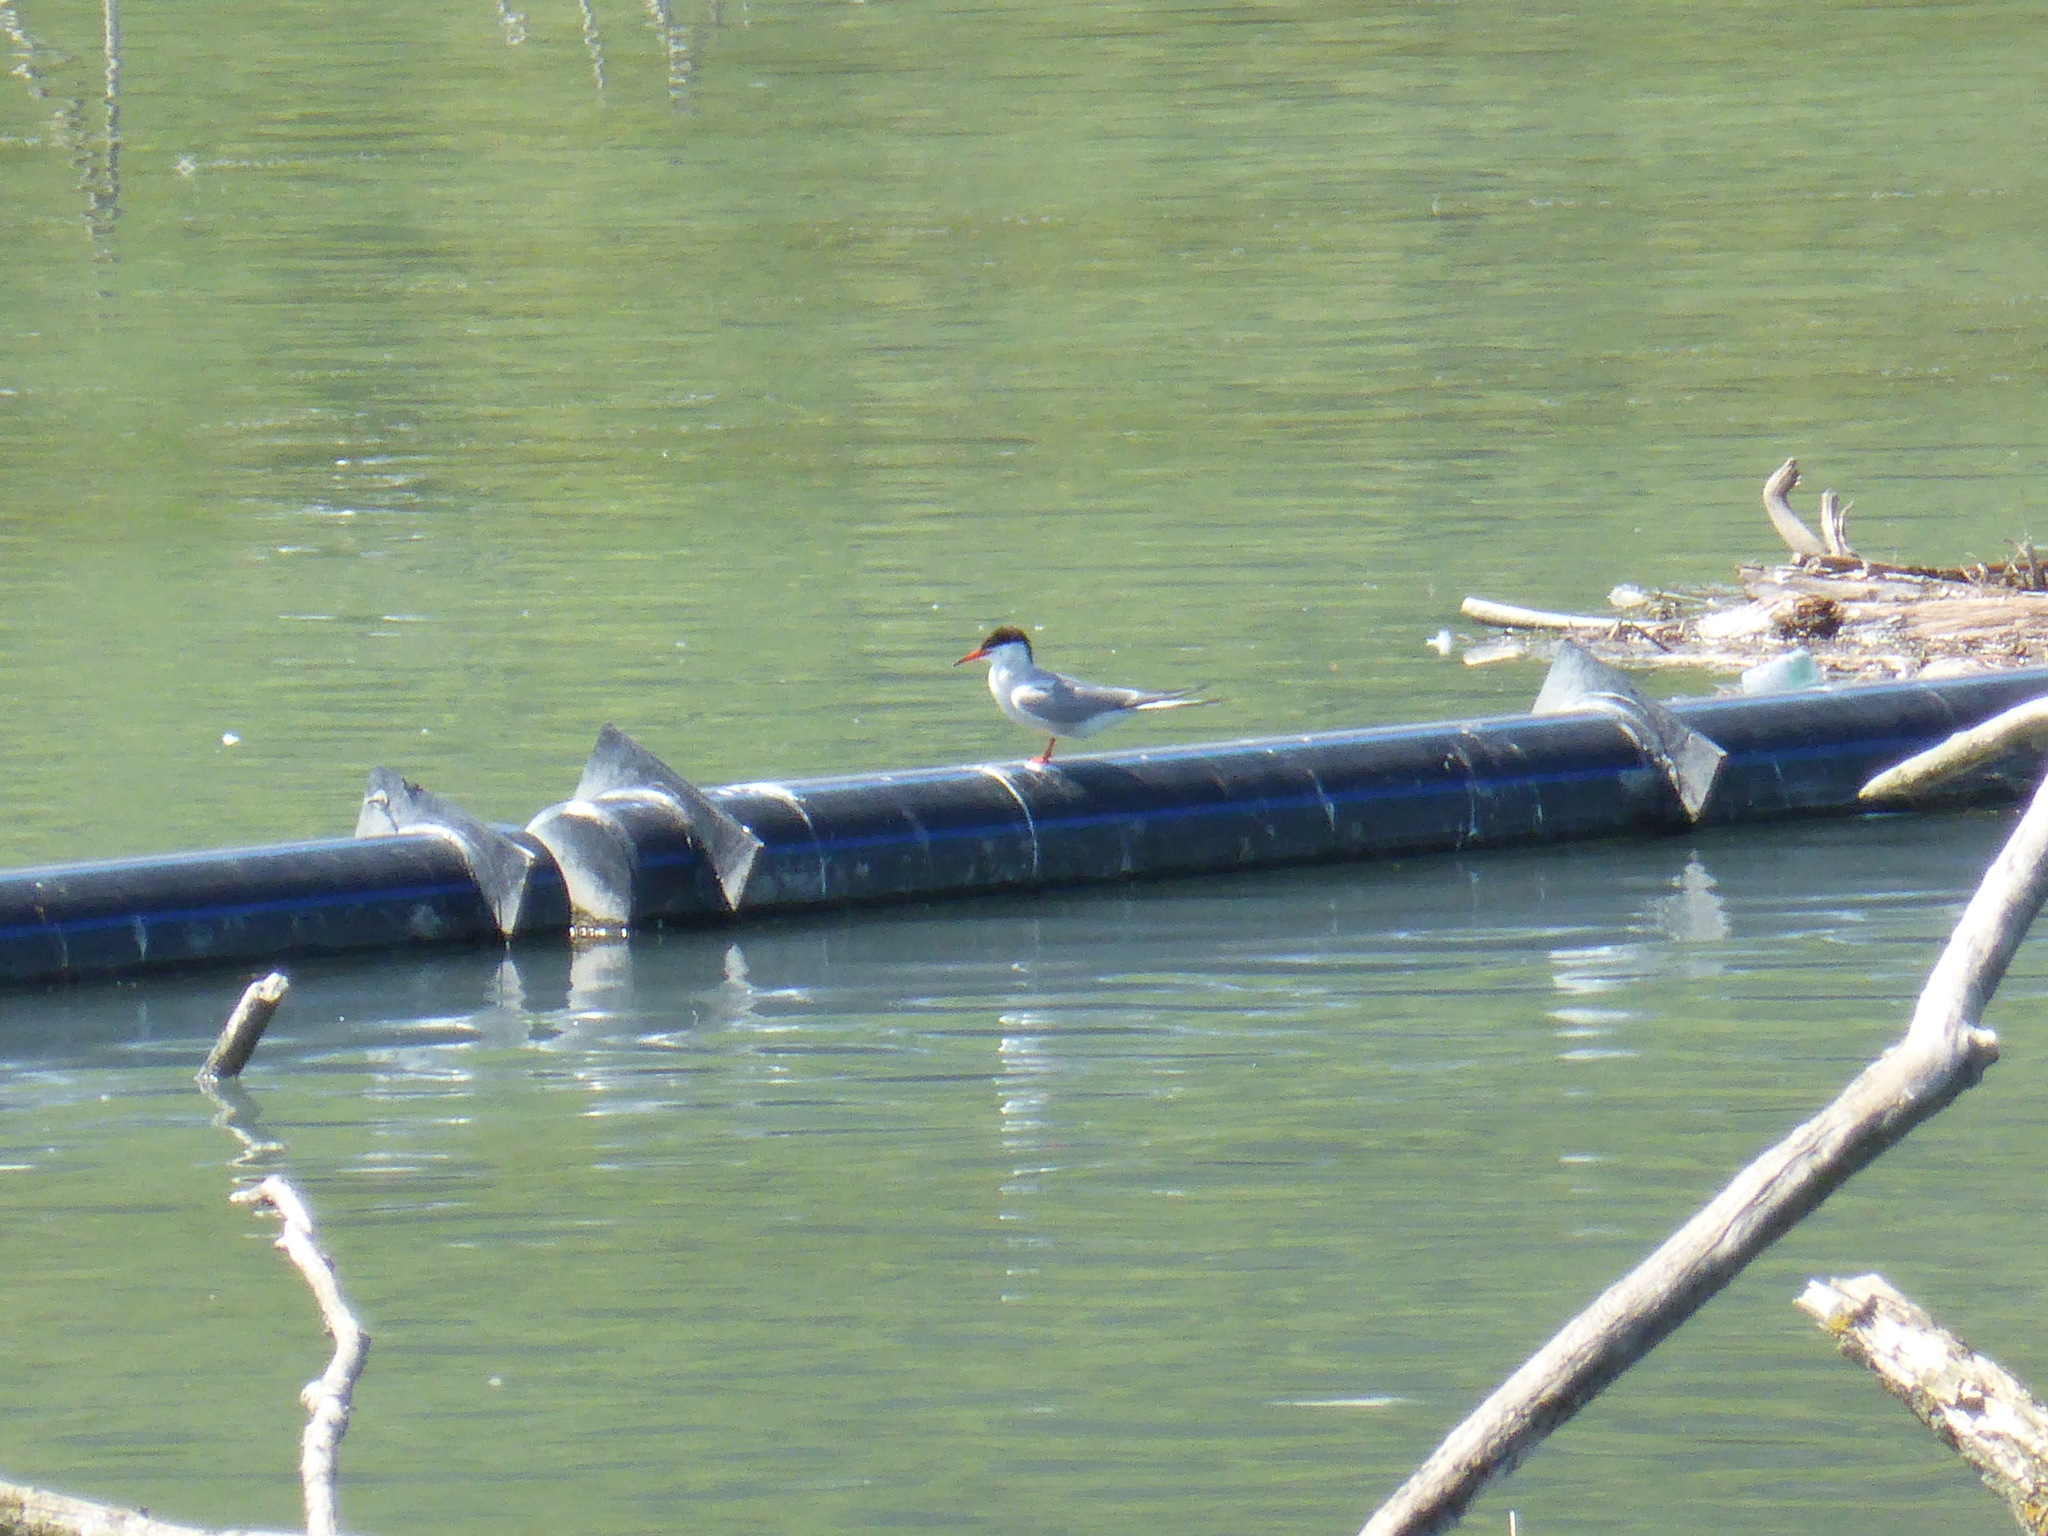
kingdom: Animalia
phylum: Chordata
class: Aves
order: Charadriiformes
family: Laridae
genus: Sterna
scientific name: Sterna hirundo
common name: Common tern
